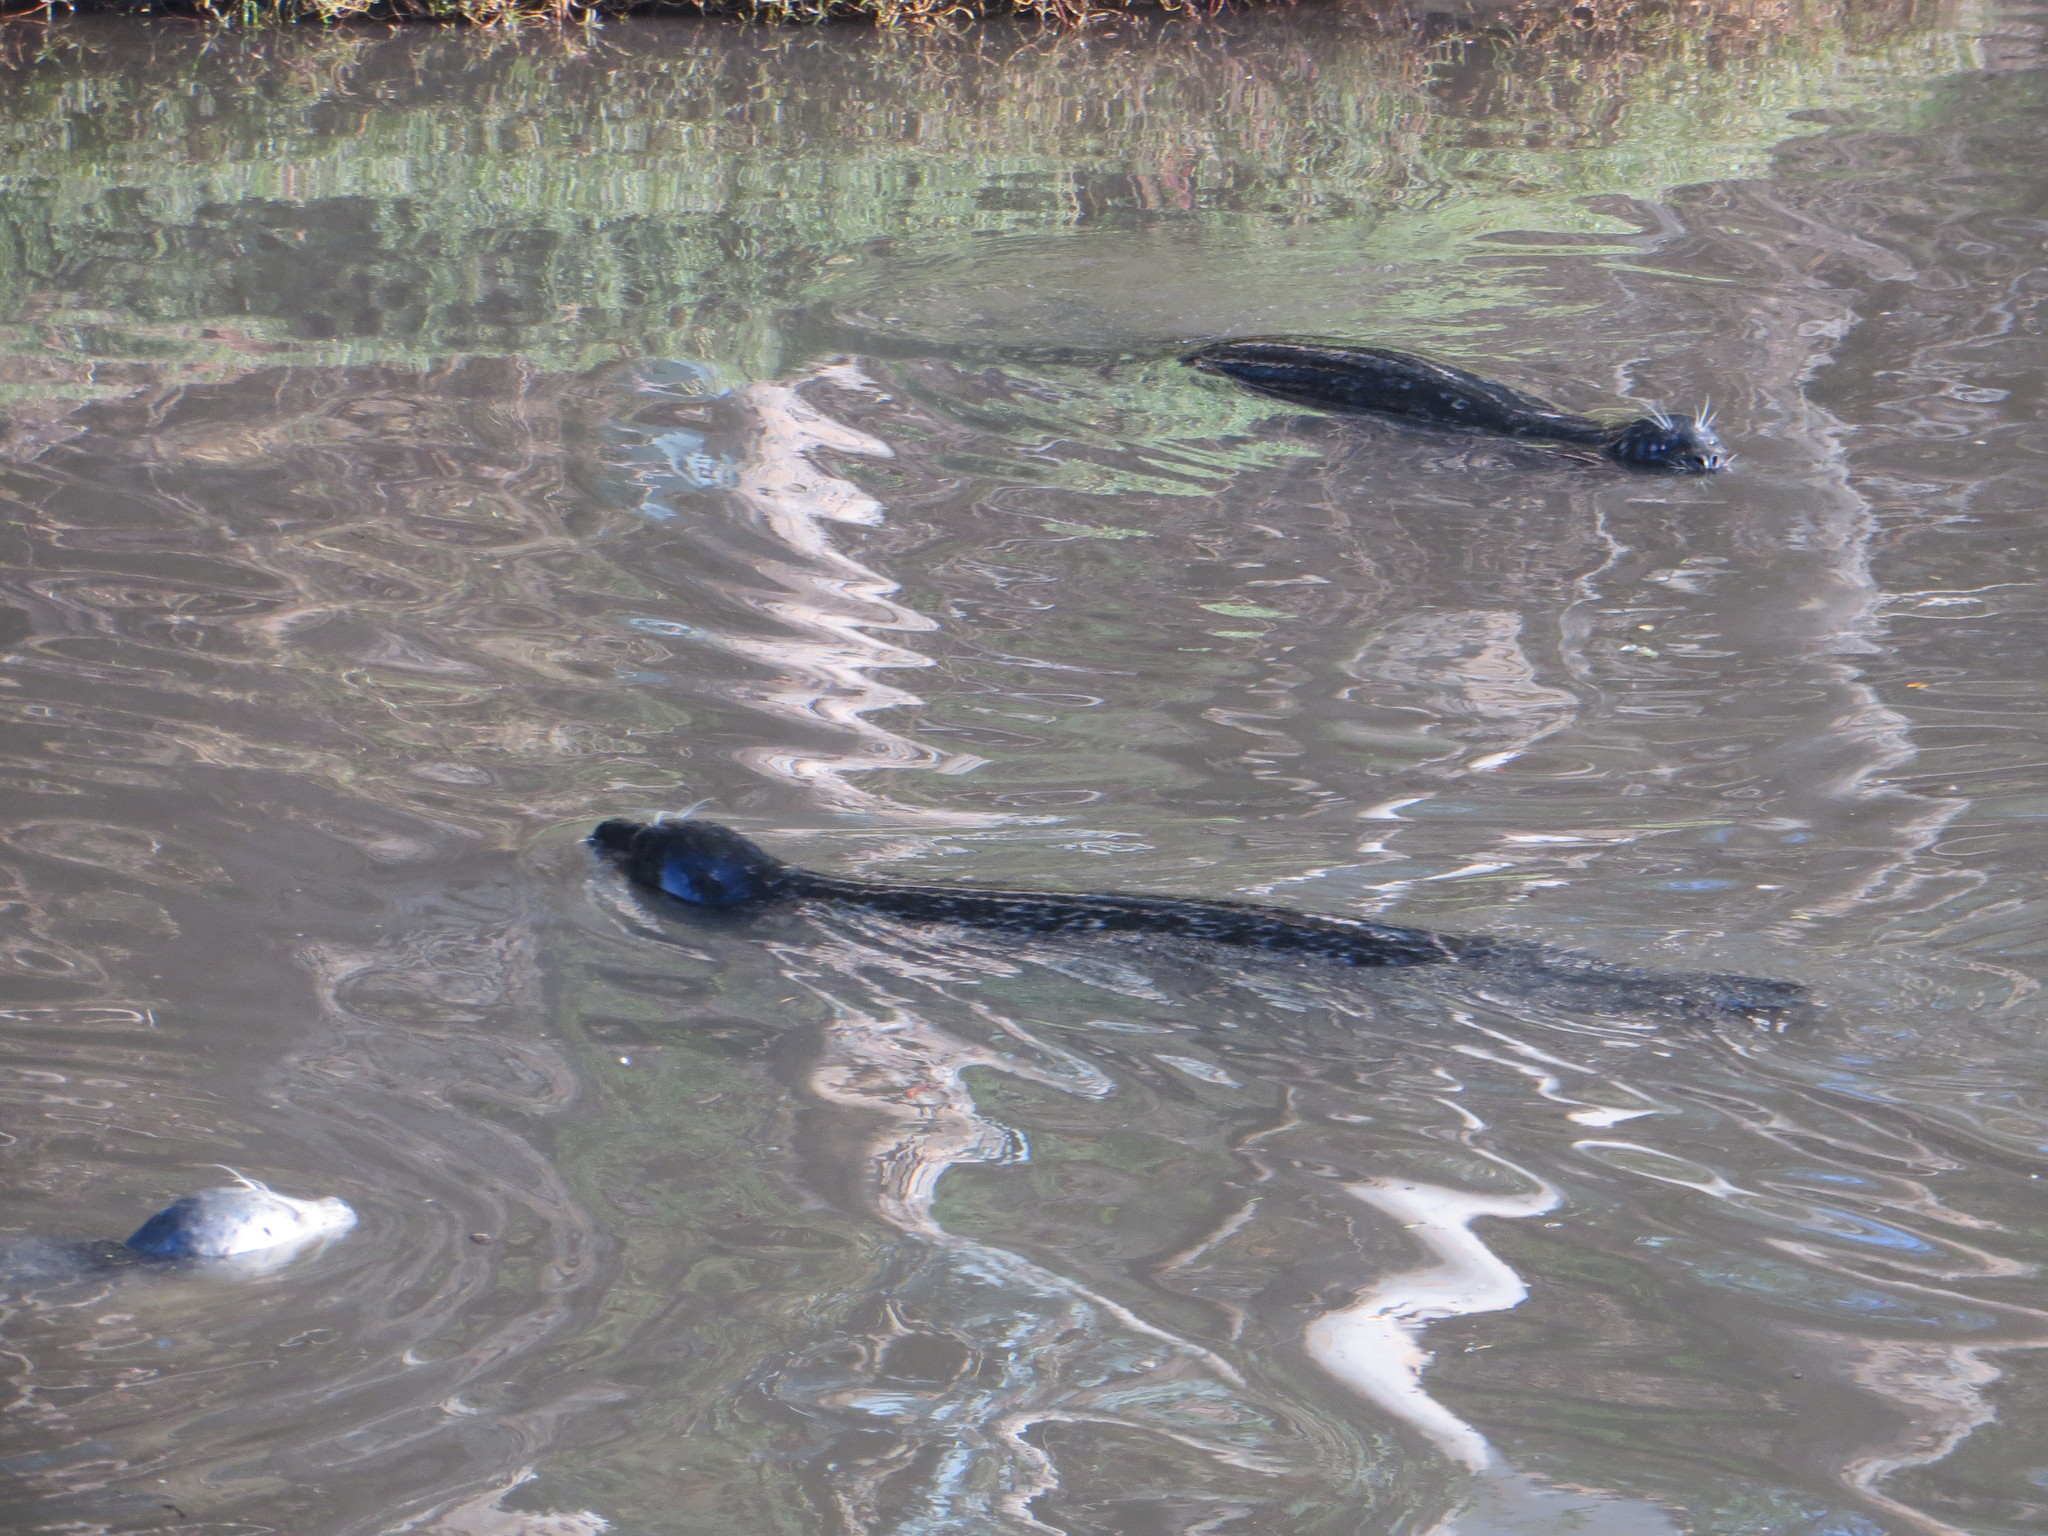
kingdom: Animalia
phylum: Chordata
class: Mammalia
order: Carnivora
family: Phocidae
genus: Phoca
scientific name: Phoca vitulina
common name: Harbor seal
